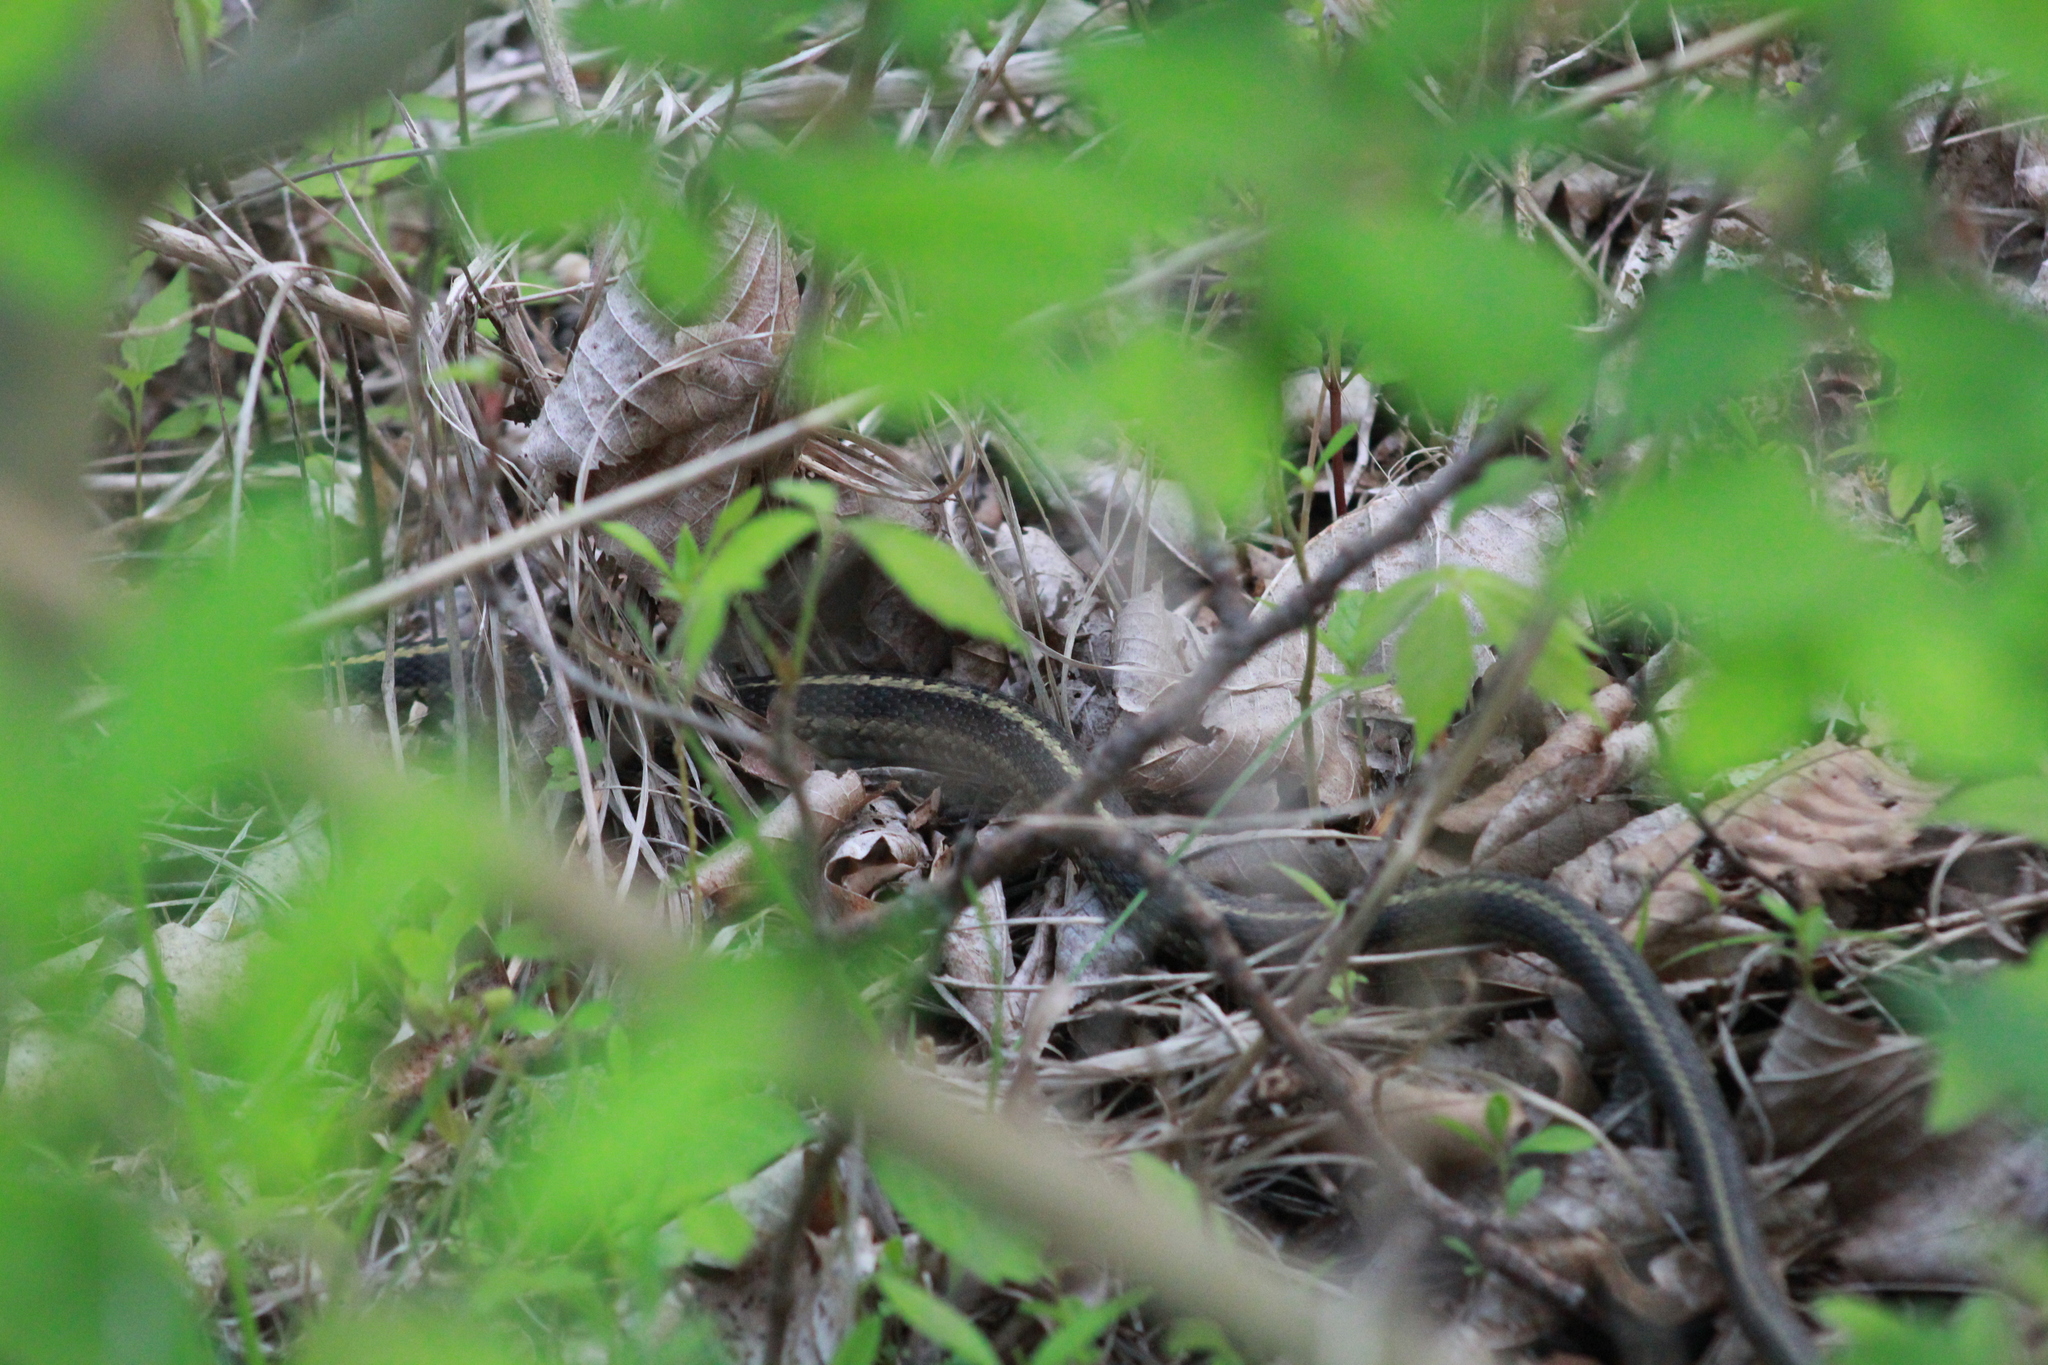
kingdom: Animalia
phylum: Chordata
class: Squamata
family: Colubridae
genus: Thamnophis
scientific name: Thamnophis sirtalis
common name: Common garter snake
